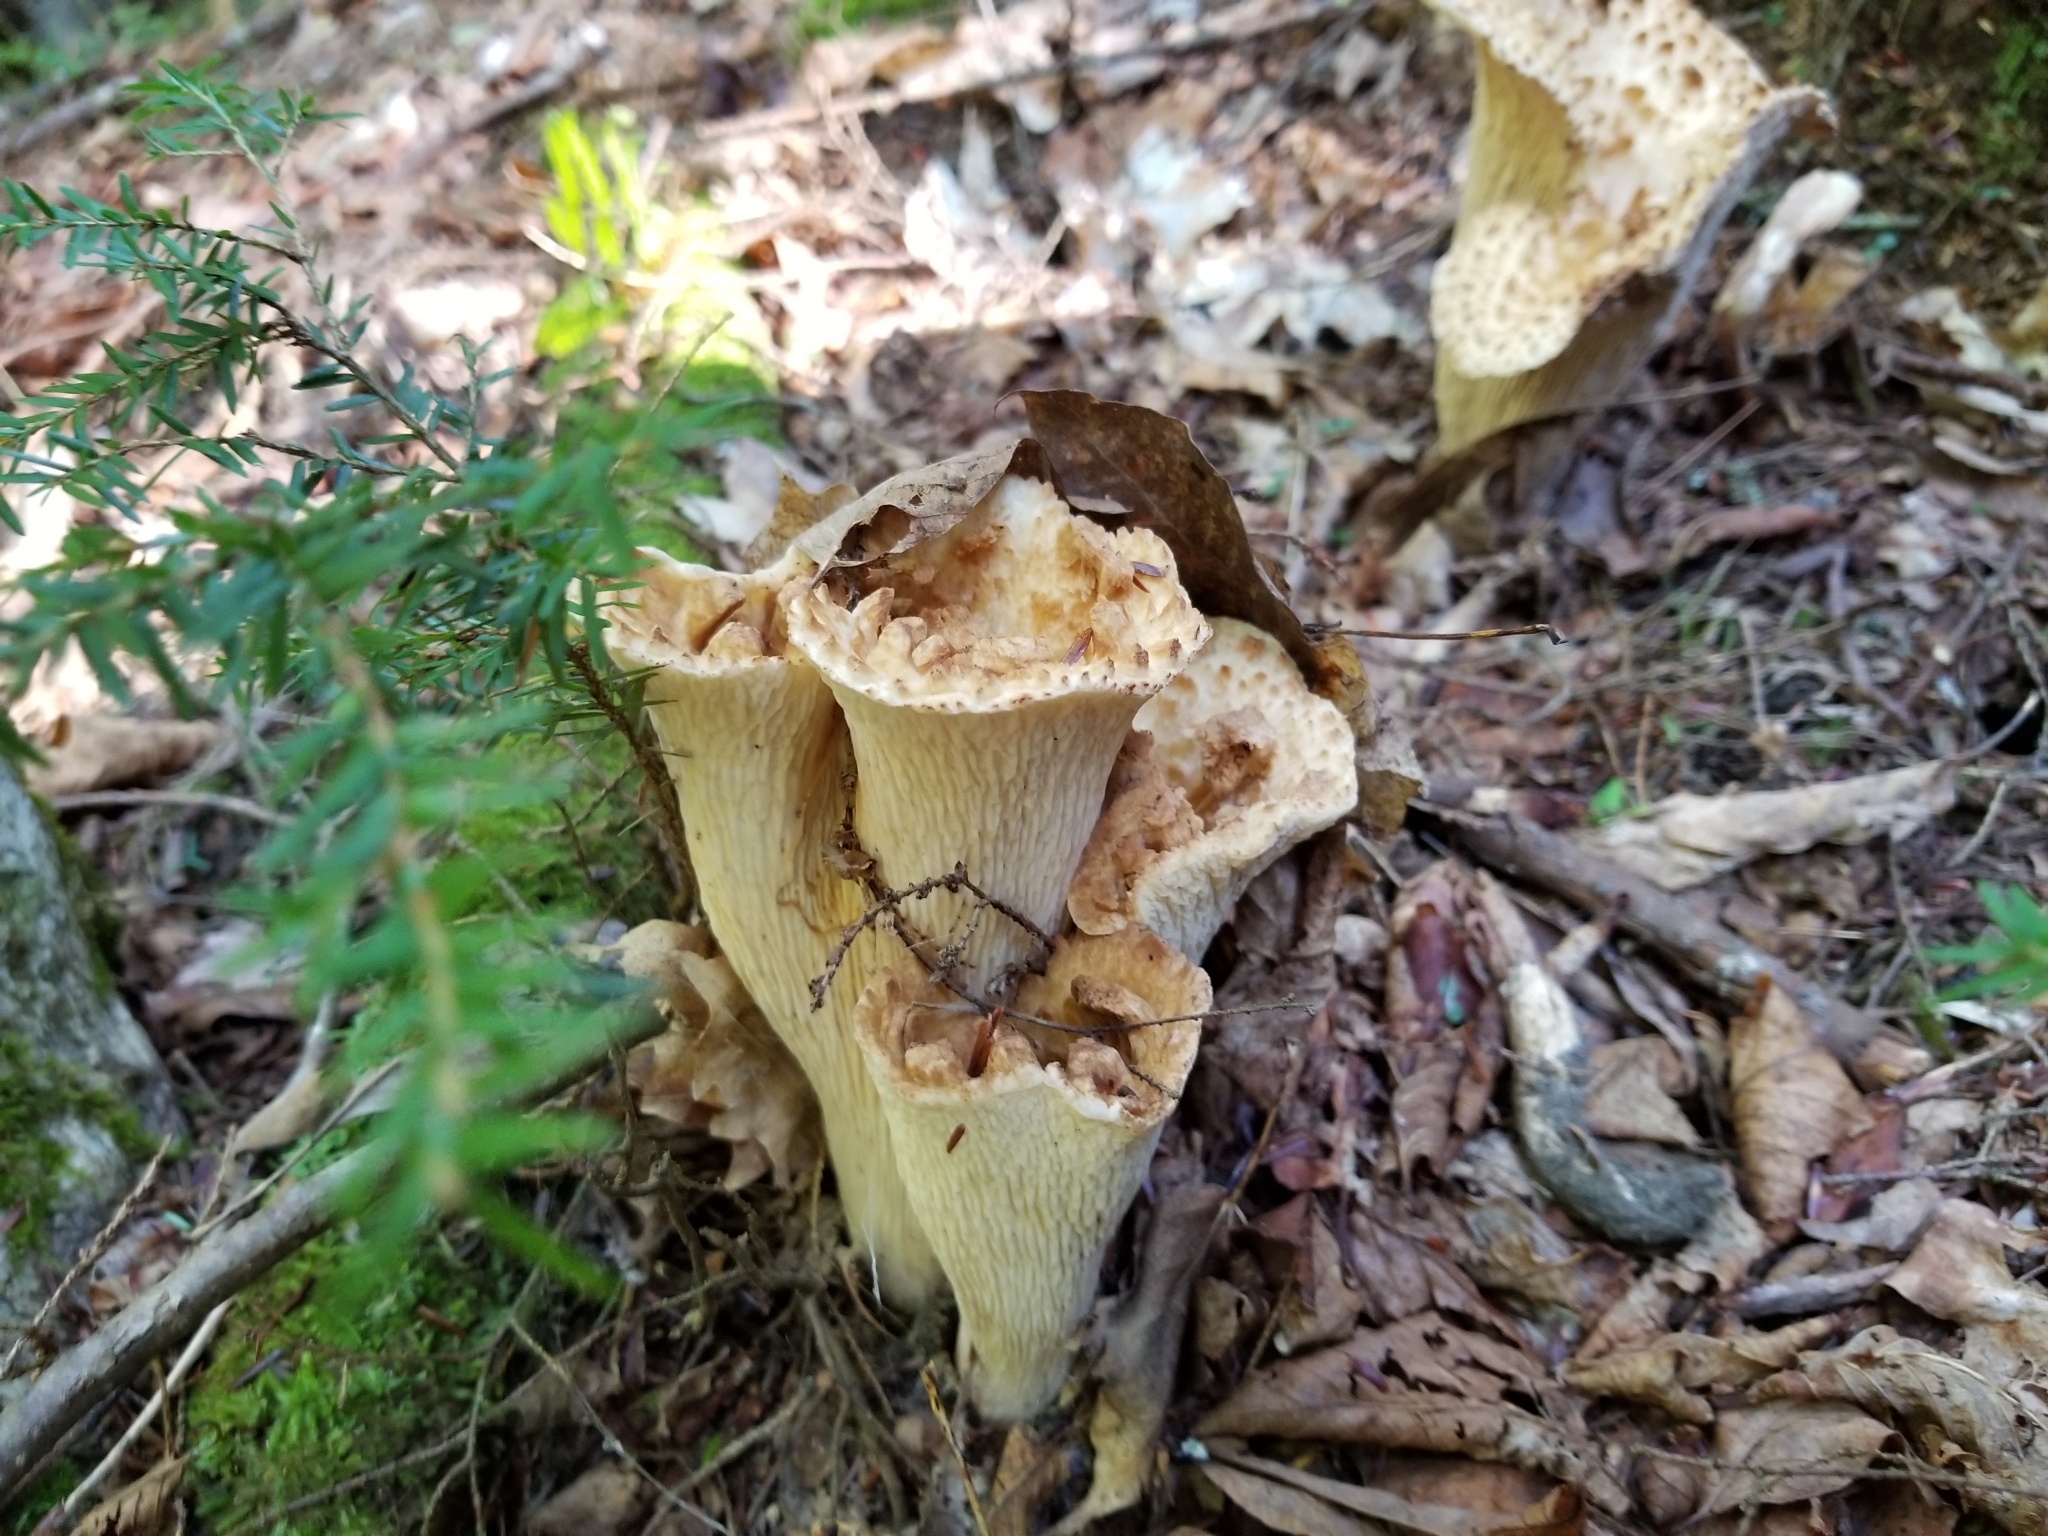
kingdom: Fungi
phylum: Basidiomycota
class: Agaricomycetes
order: Gomphales
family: Gomphaceae
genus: Turbinellus
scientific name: Turbinellus floccosus
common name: Scaly chanterelle
